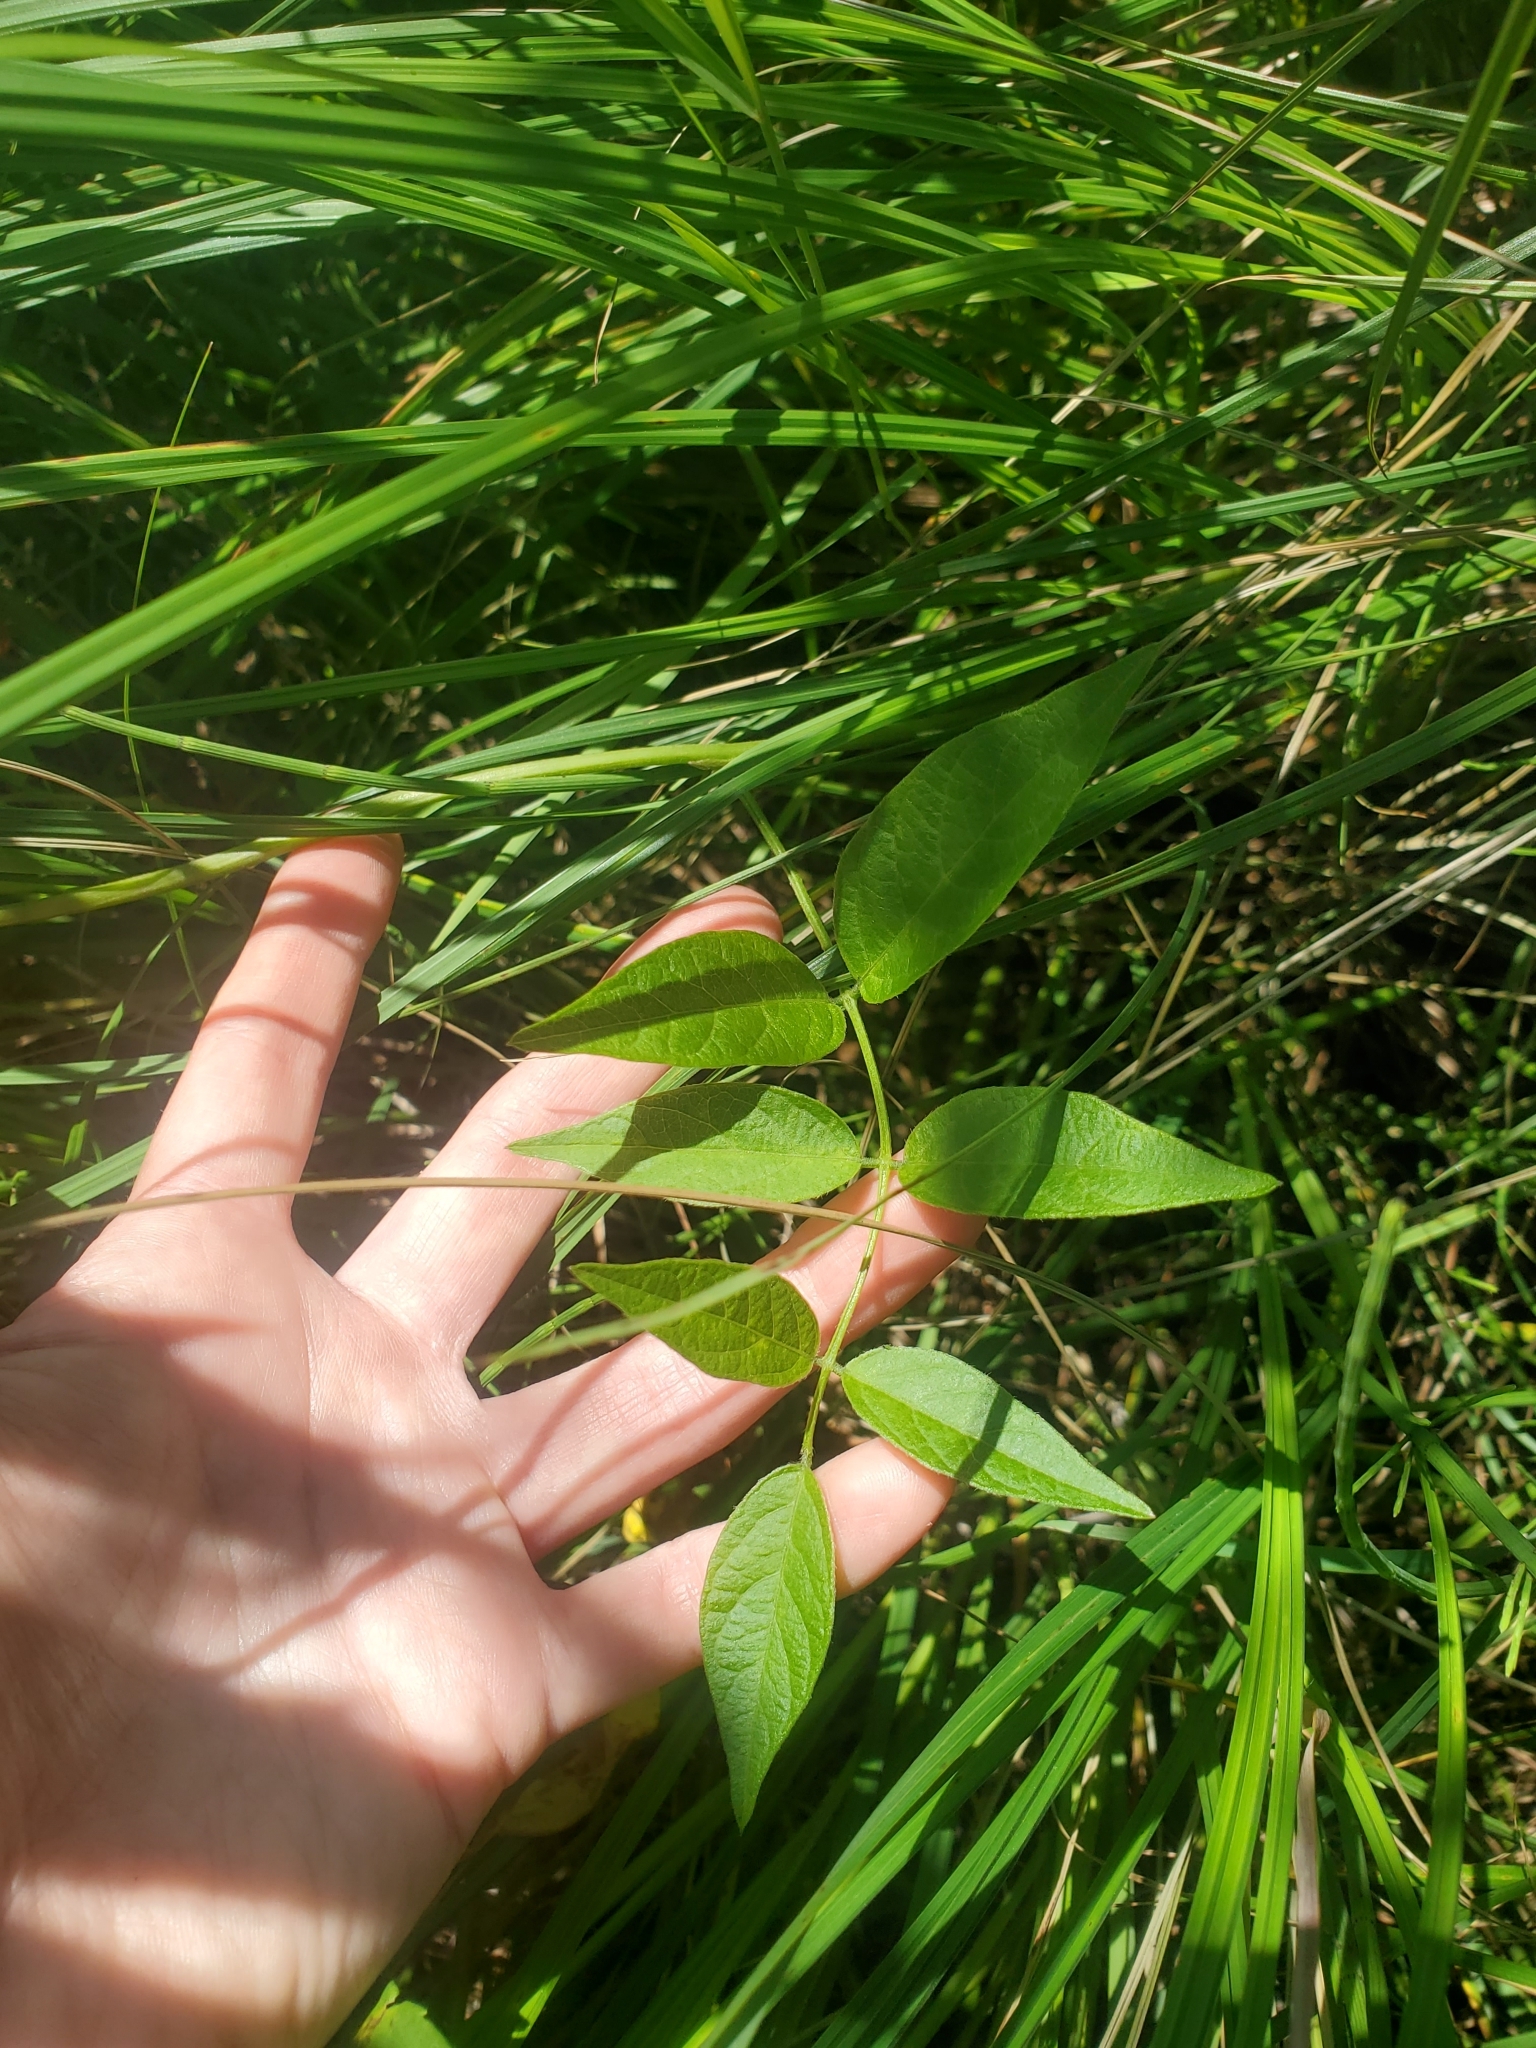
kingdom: Plantae
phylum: Tracheophyta
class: Magnoliopsida
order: Fabales
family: Fabaceae
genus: Apios
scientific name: Apios americana
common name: American potato-bean
